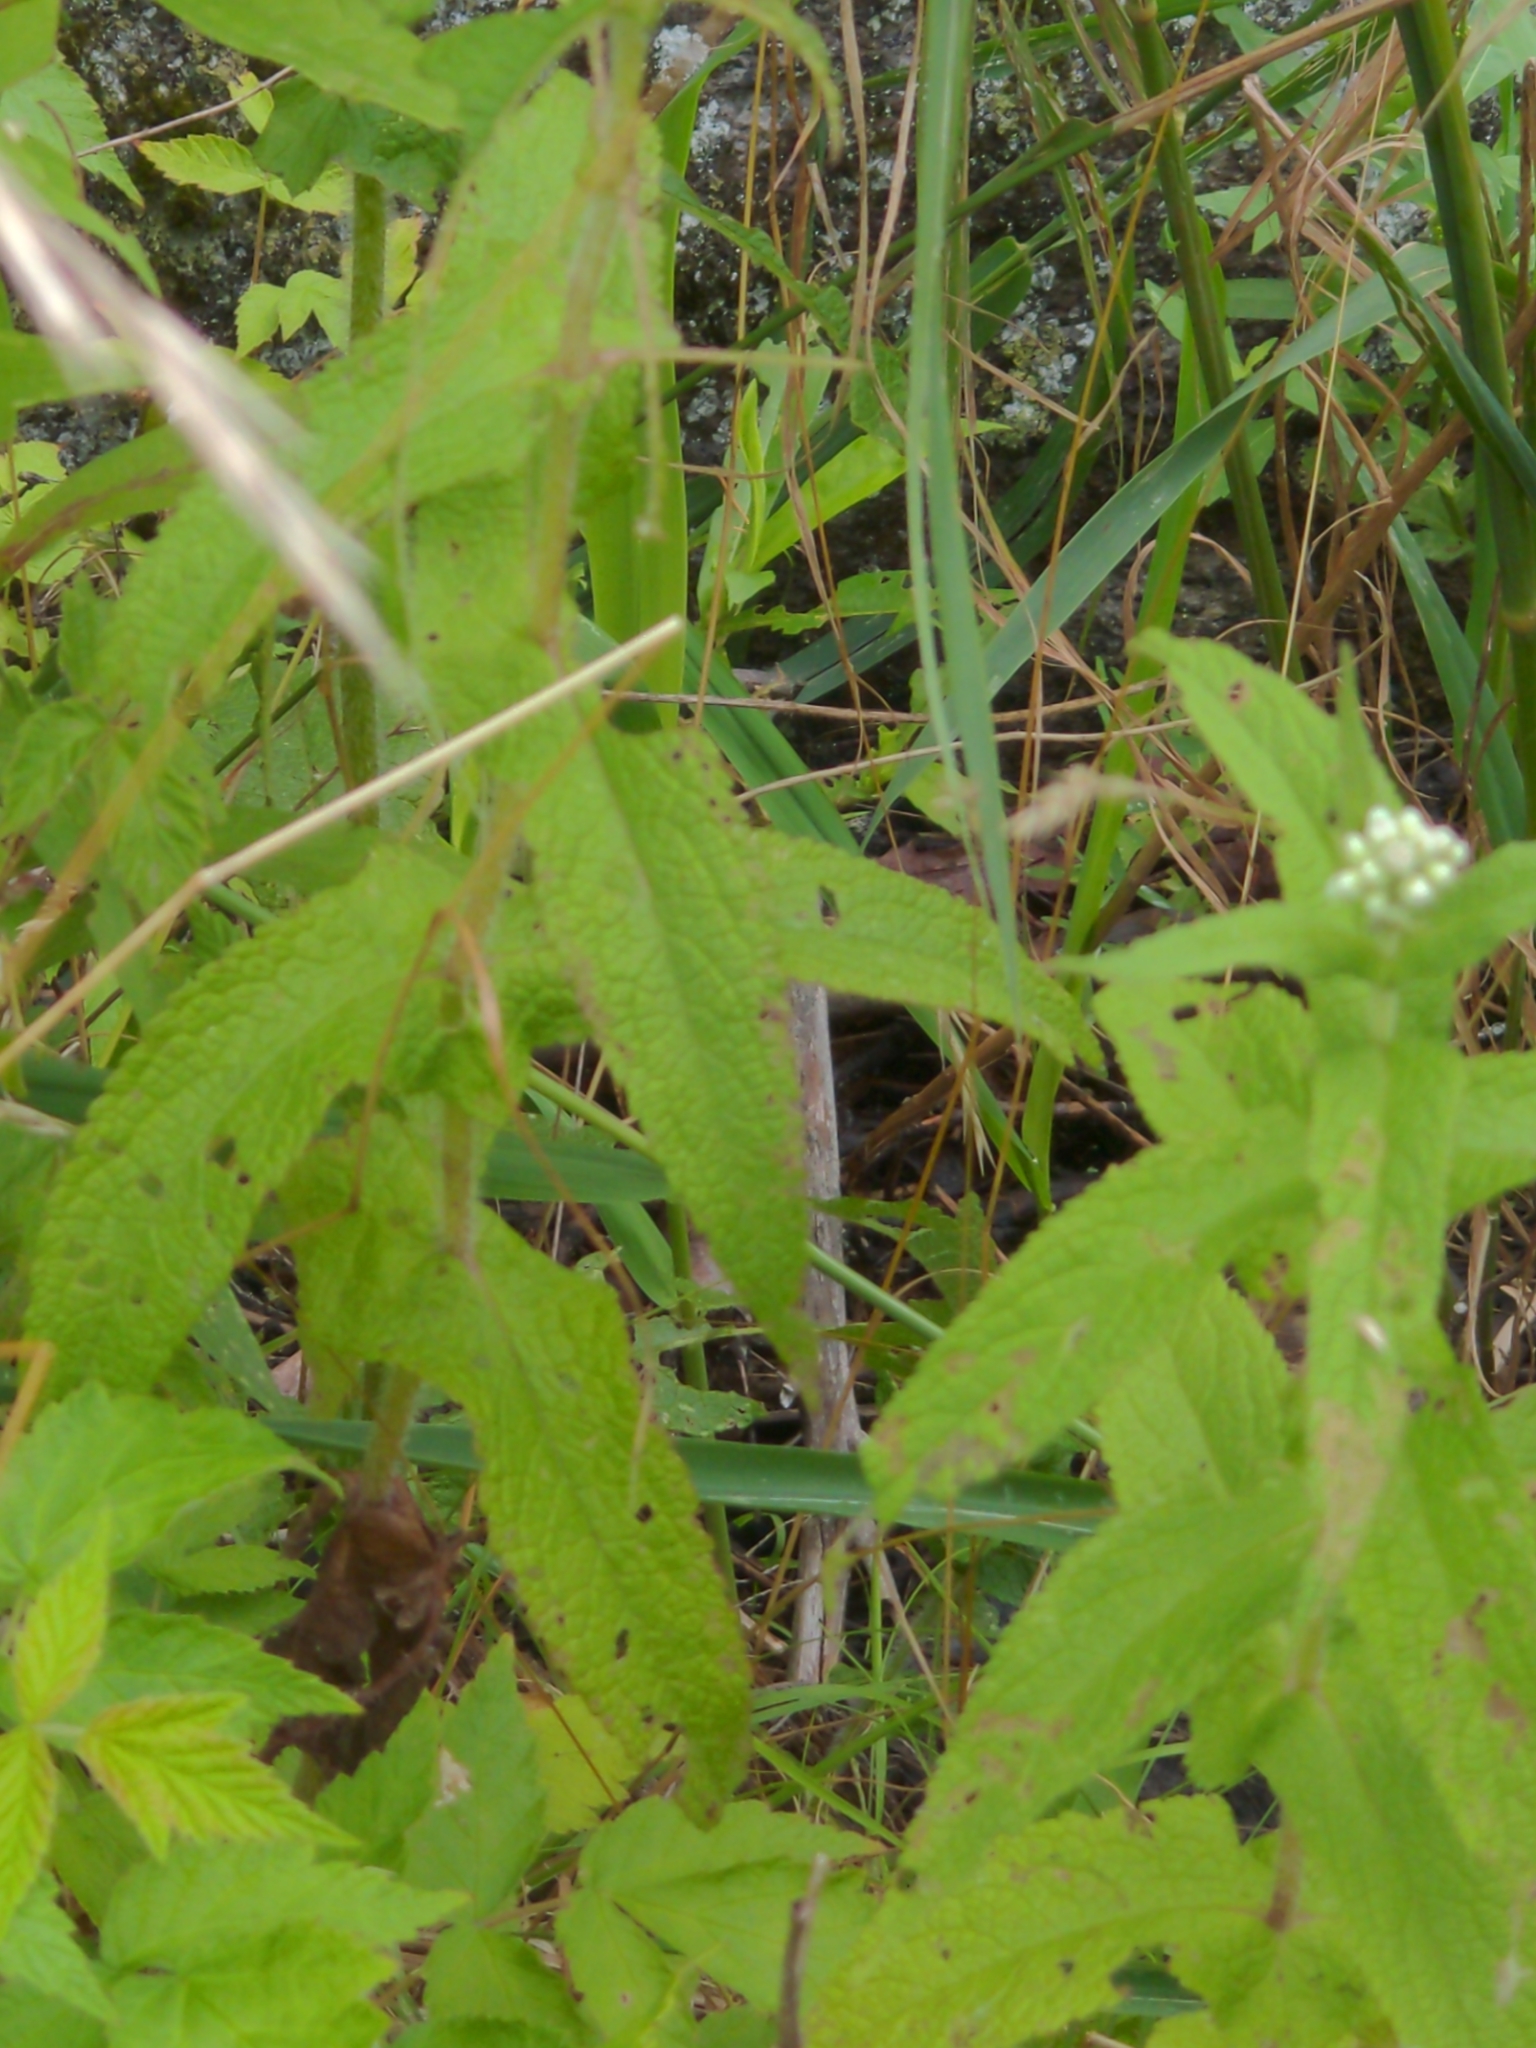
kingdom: Plantae
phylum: Tracheophyta
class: Magnoliopsida
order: Asterales
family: Asteraceae
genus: Eupatorium
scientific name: Eupatorium perfoliatum
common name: Boneset
